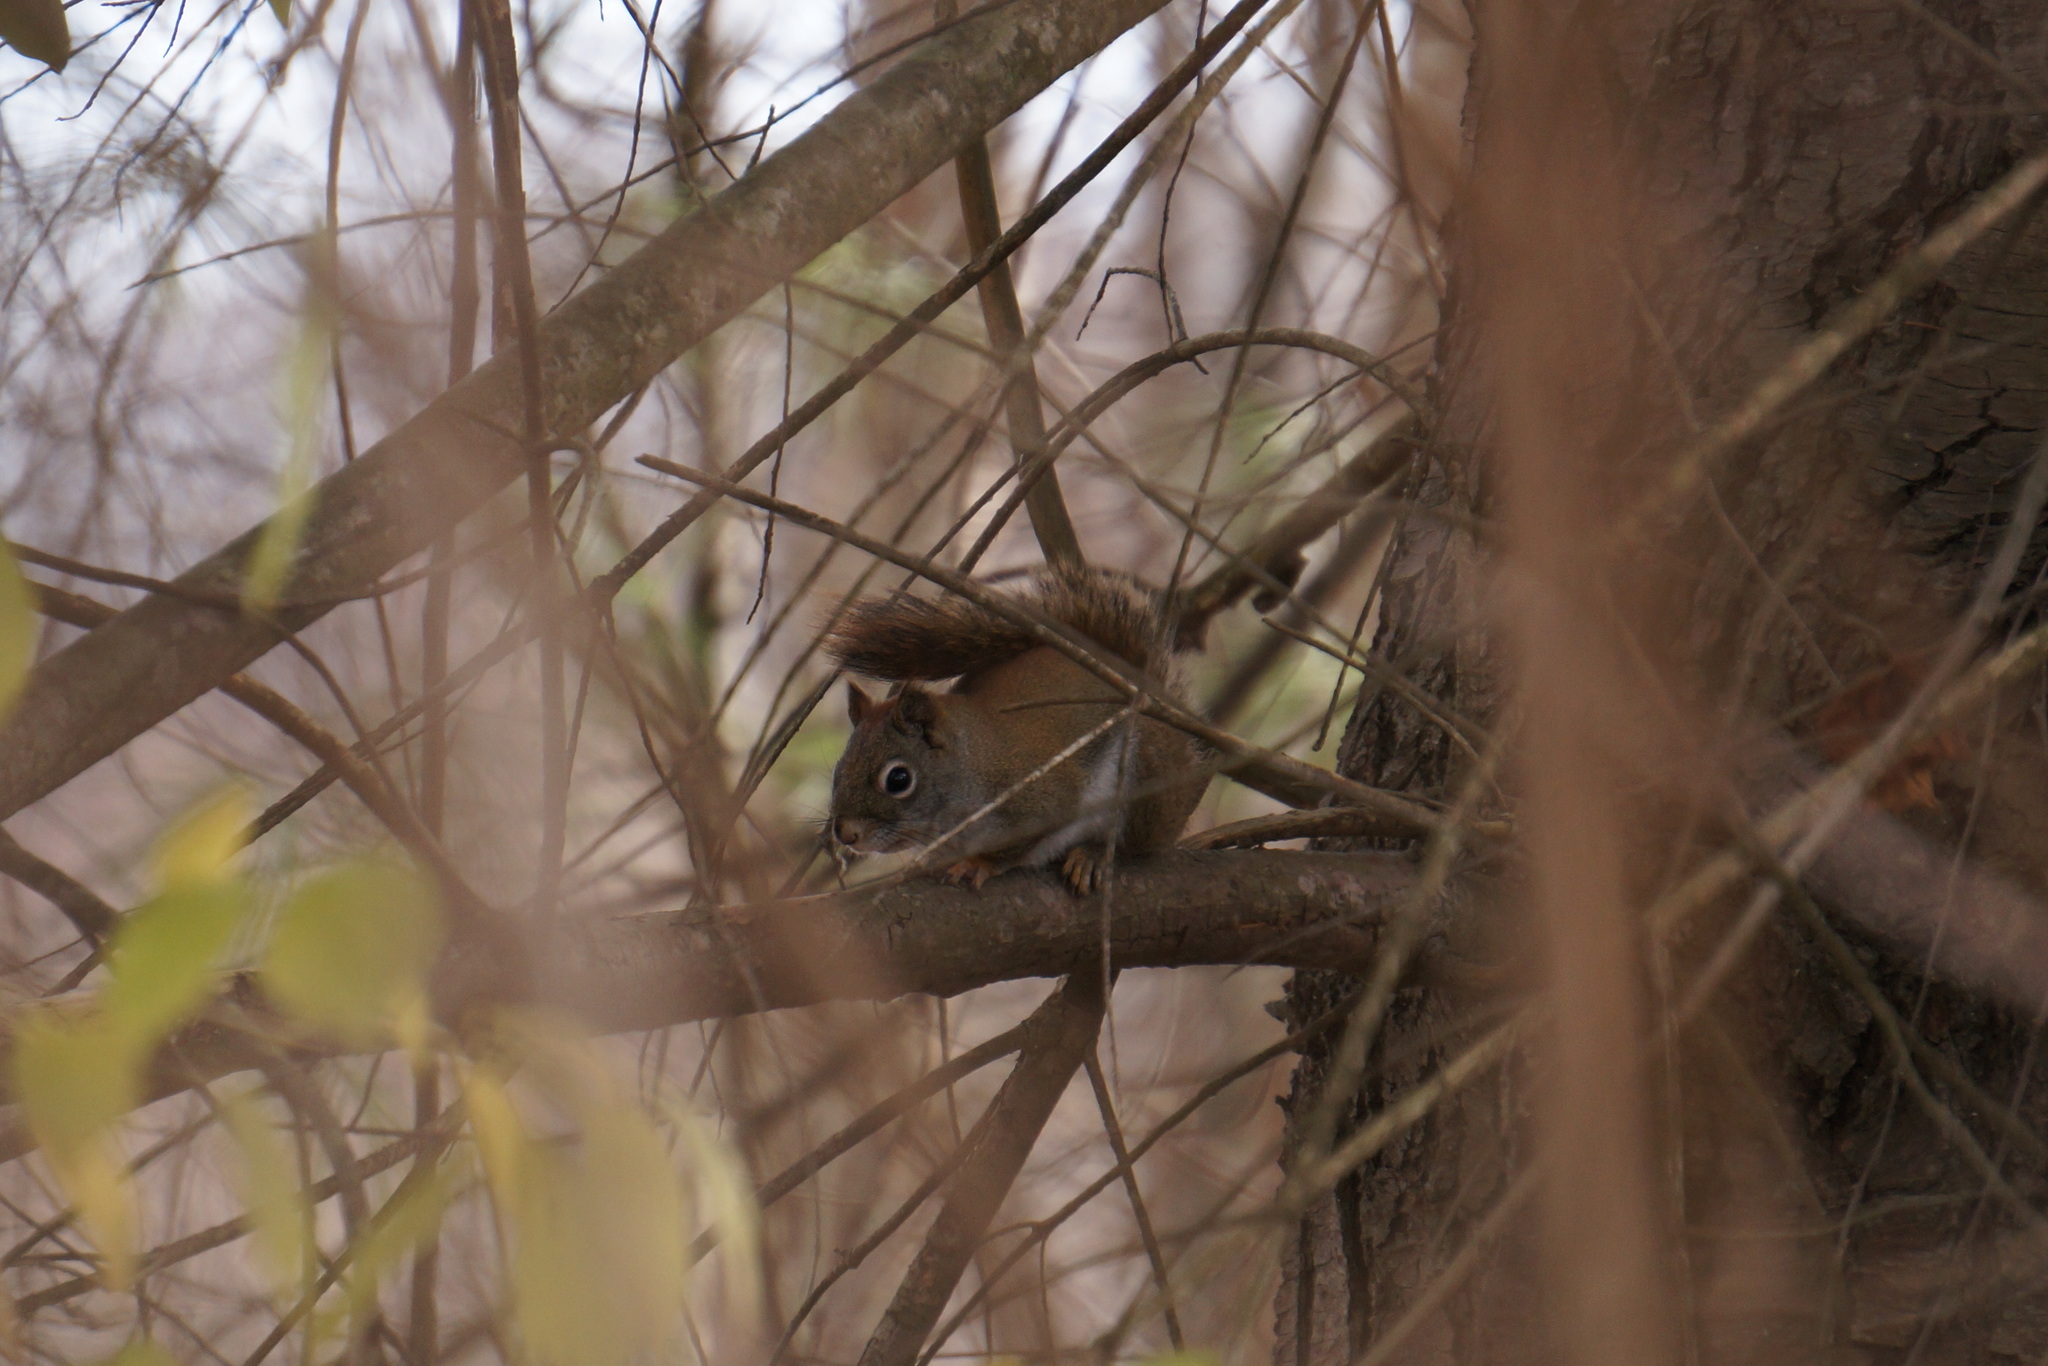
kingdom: Animalia
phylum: Chordata
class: Mammalia
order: Rodentia
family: Sciuridae
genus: Tamiasciurus
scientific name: Tamiasciurus hudsonicus
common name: Red squirrel
